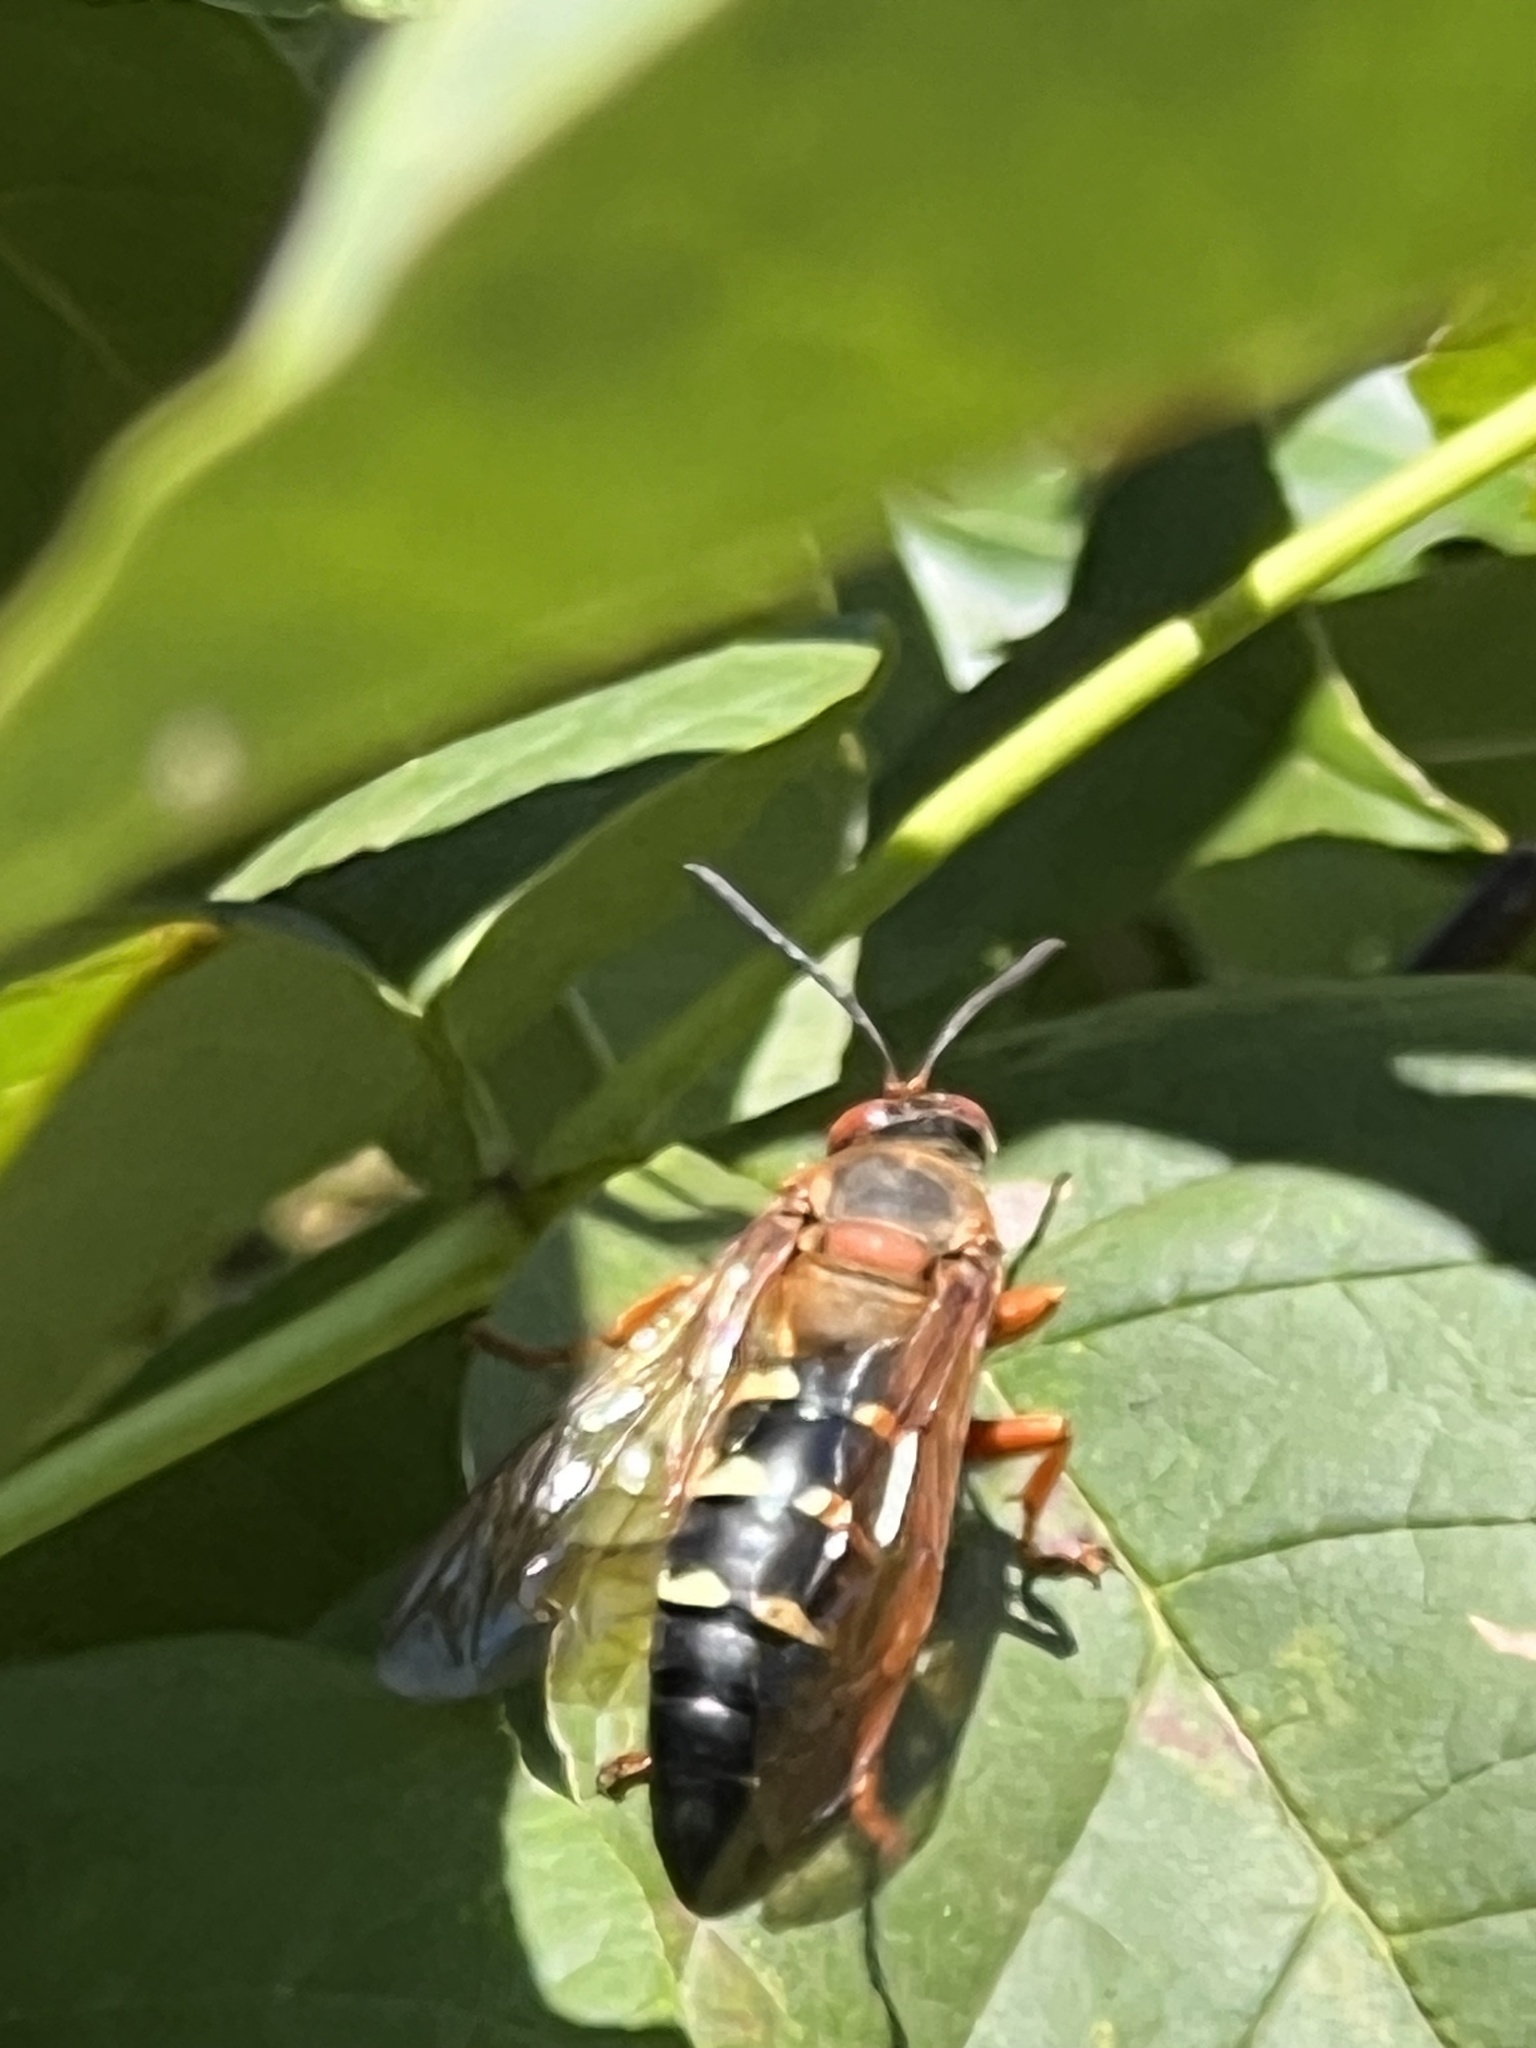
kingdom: Animalia
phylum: Arthropoda
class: Insecta
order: Hymenoptera
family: Crabronidae
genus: Sphecius
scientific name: Sphecius speciosus
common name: Cicada killer
